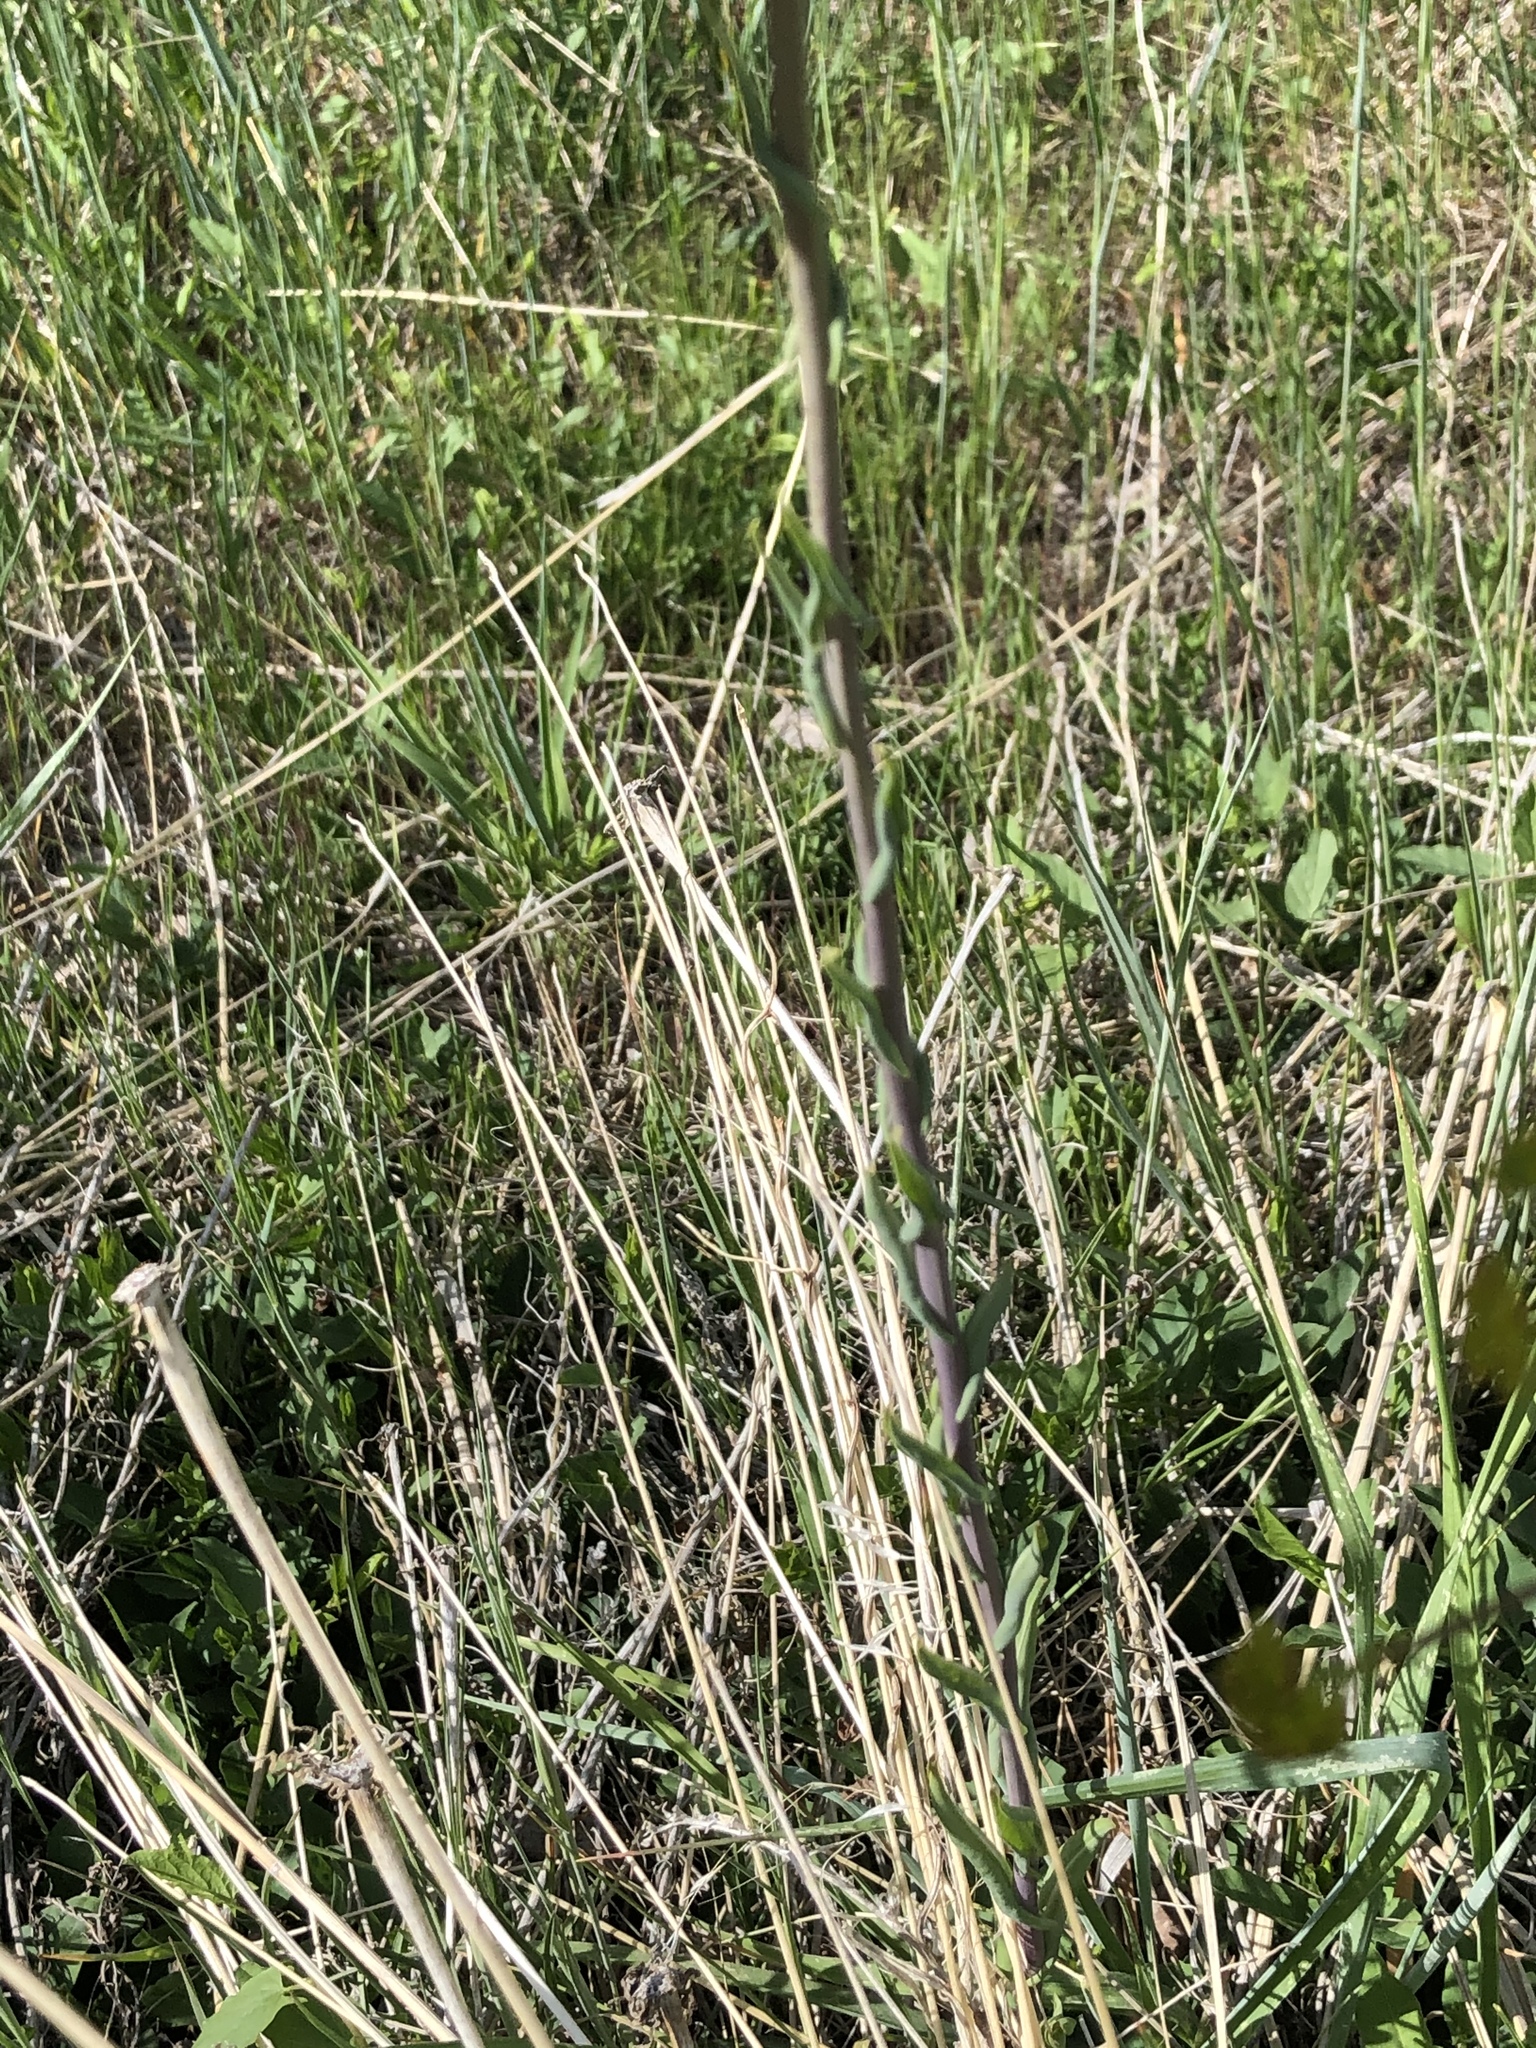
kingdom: Plantae
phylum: Tracheophyta
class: Magnoliopsida
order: Brassicales
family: Brassicaceae
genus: Isatis
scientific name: Isatis tinctoria
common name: Woad
